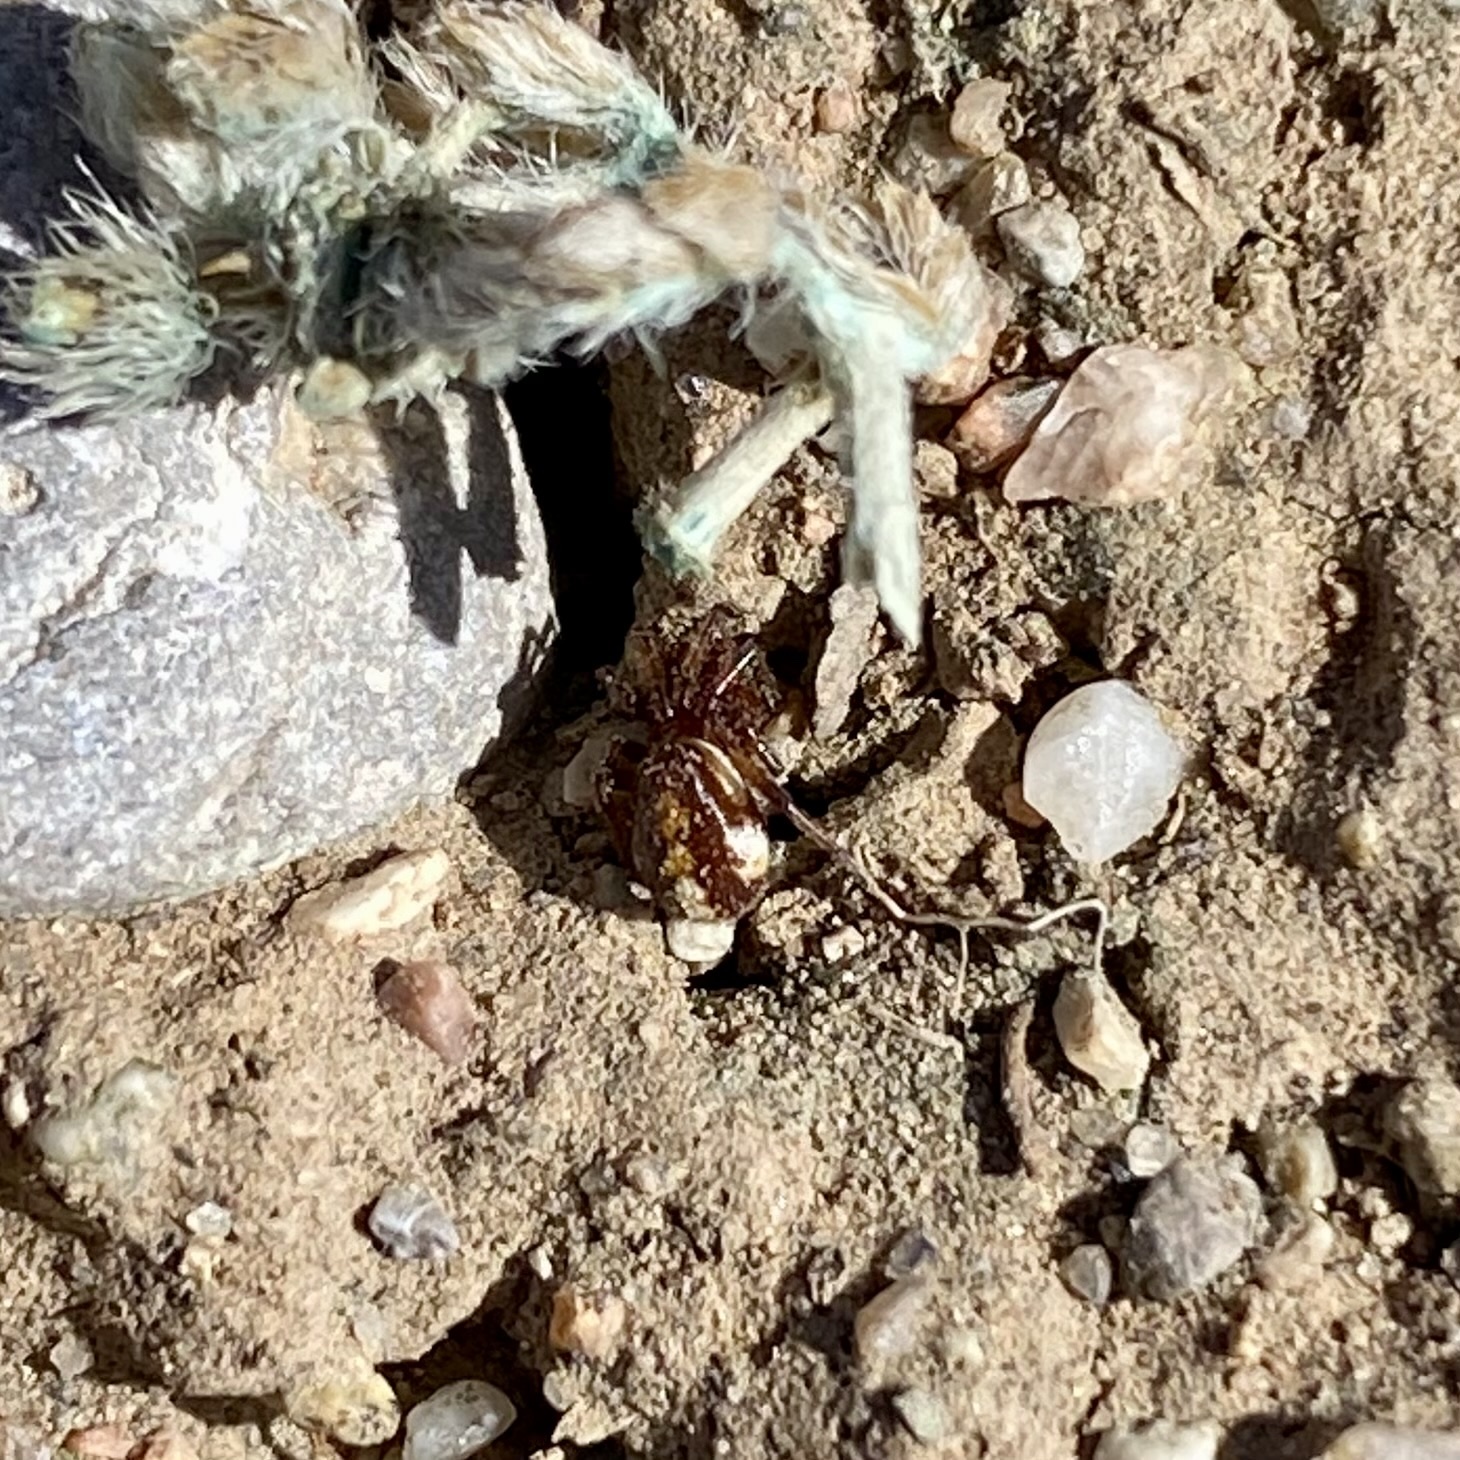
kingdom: Animalia
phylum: Arthropoda
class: Arachnida
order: Araneae
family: Theridiidae
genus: Asagena
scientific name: Asagena
